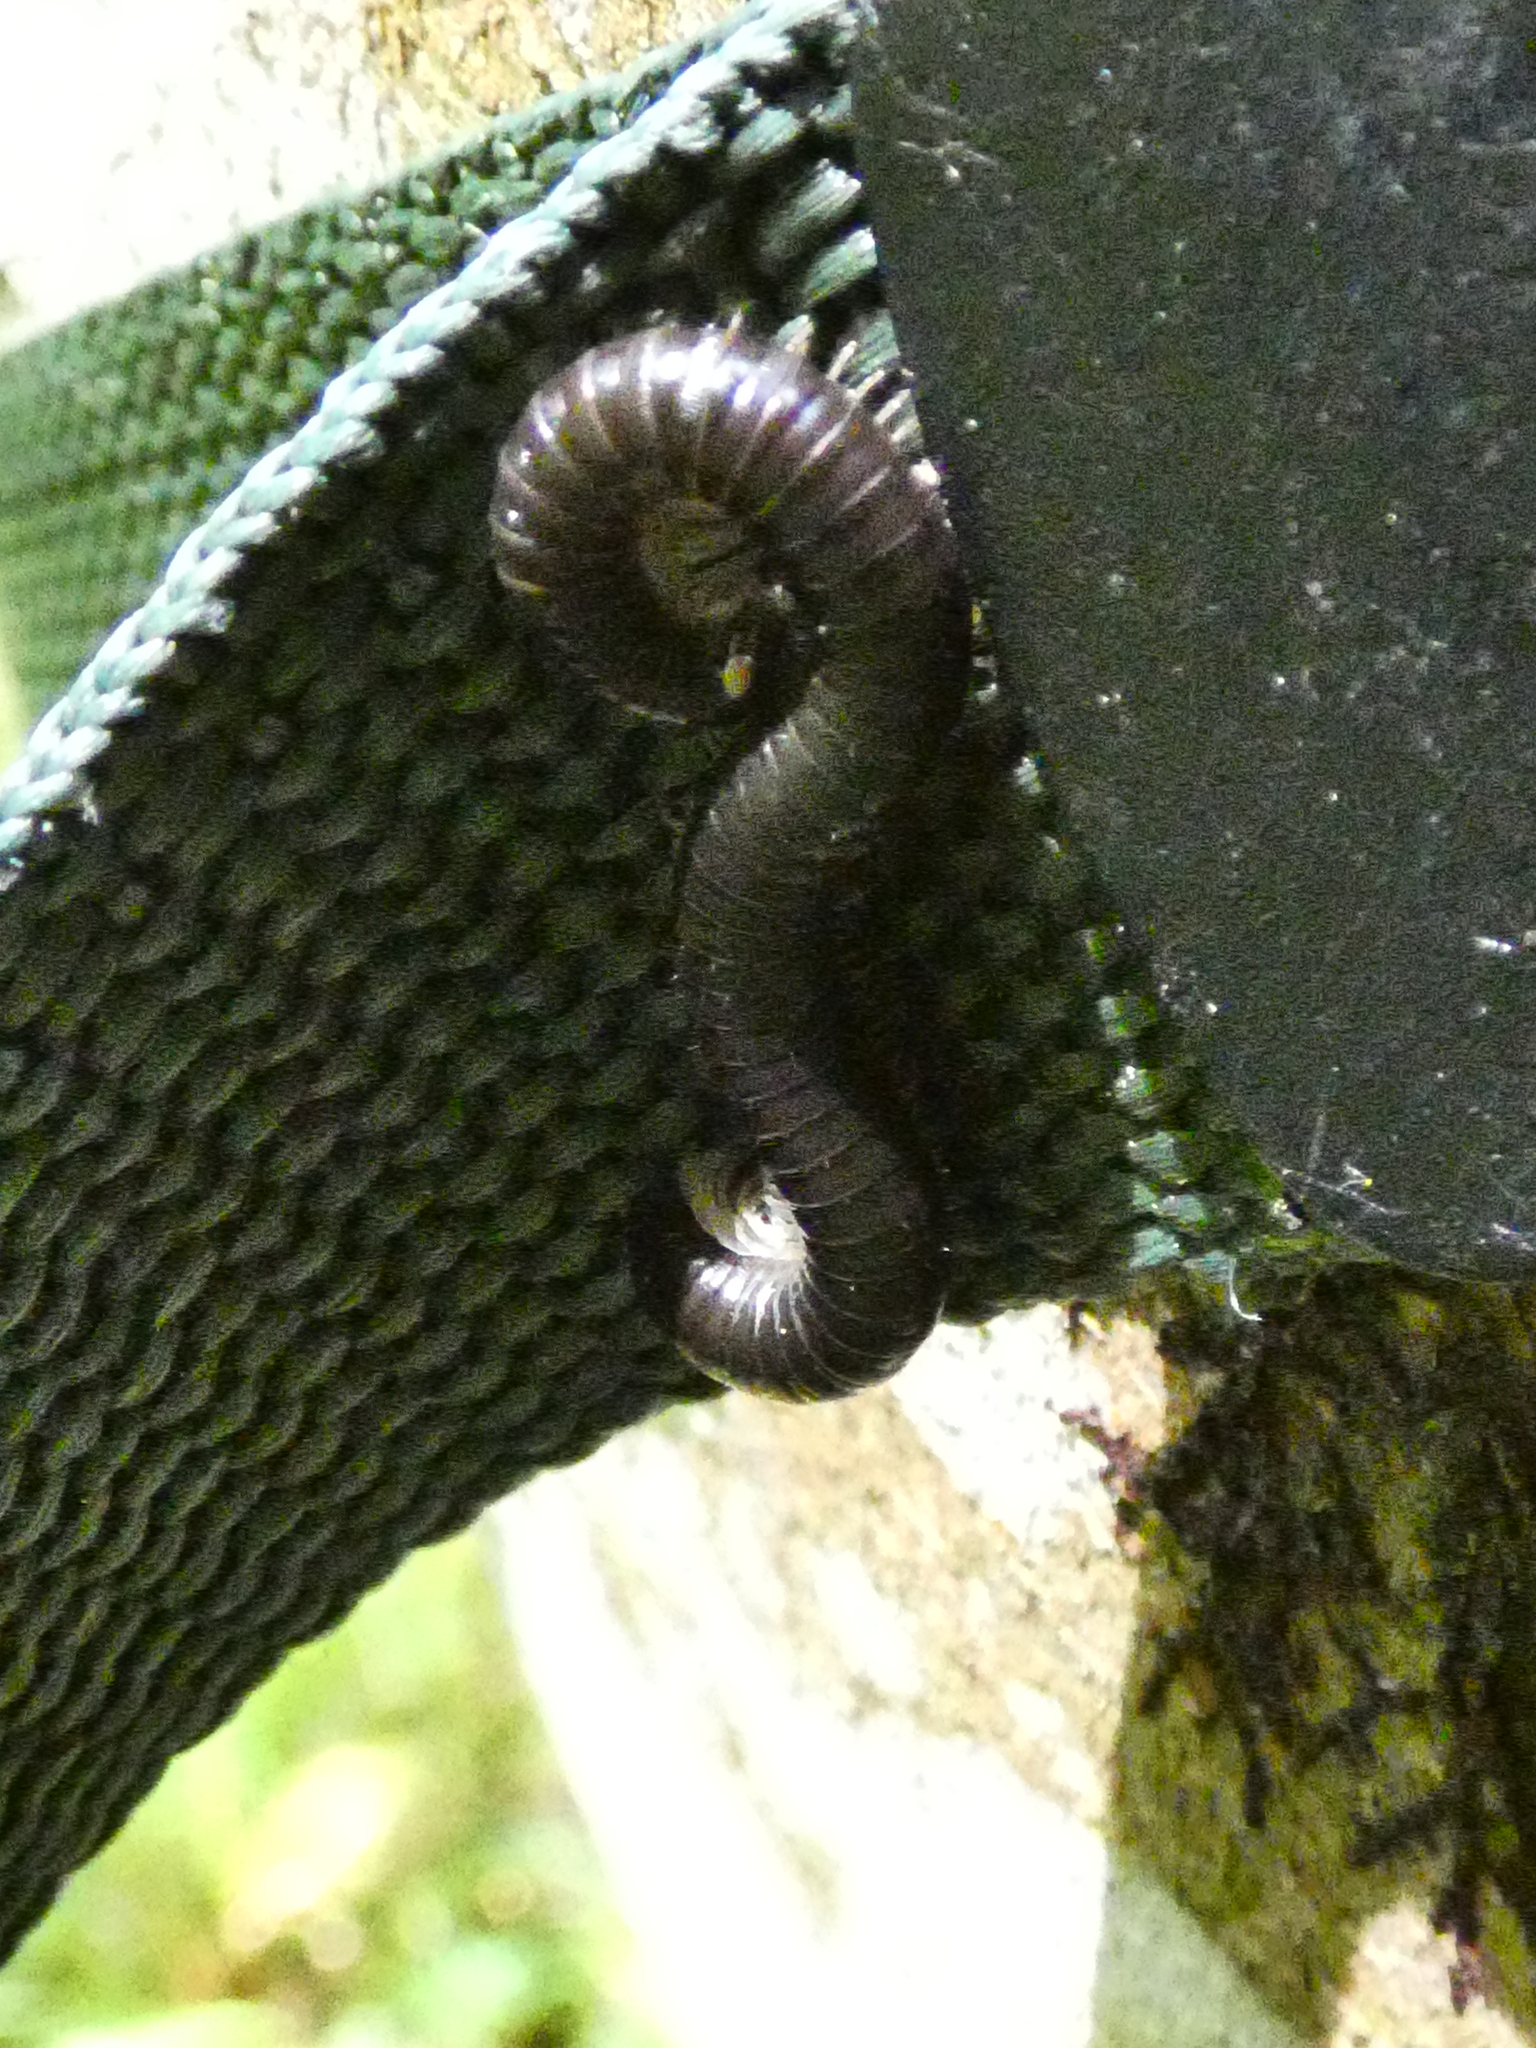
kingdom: Animalia
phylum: Arthropoda
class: Diplopoda
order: Julida
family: Julidae
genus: Tachypodoiulus
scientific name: Tachypodoiulus niger
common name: White-legged snake millipede
